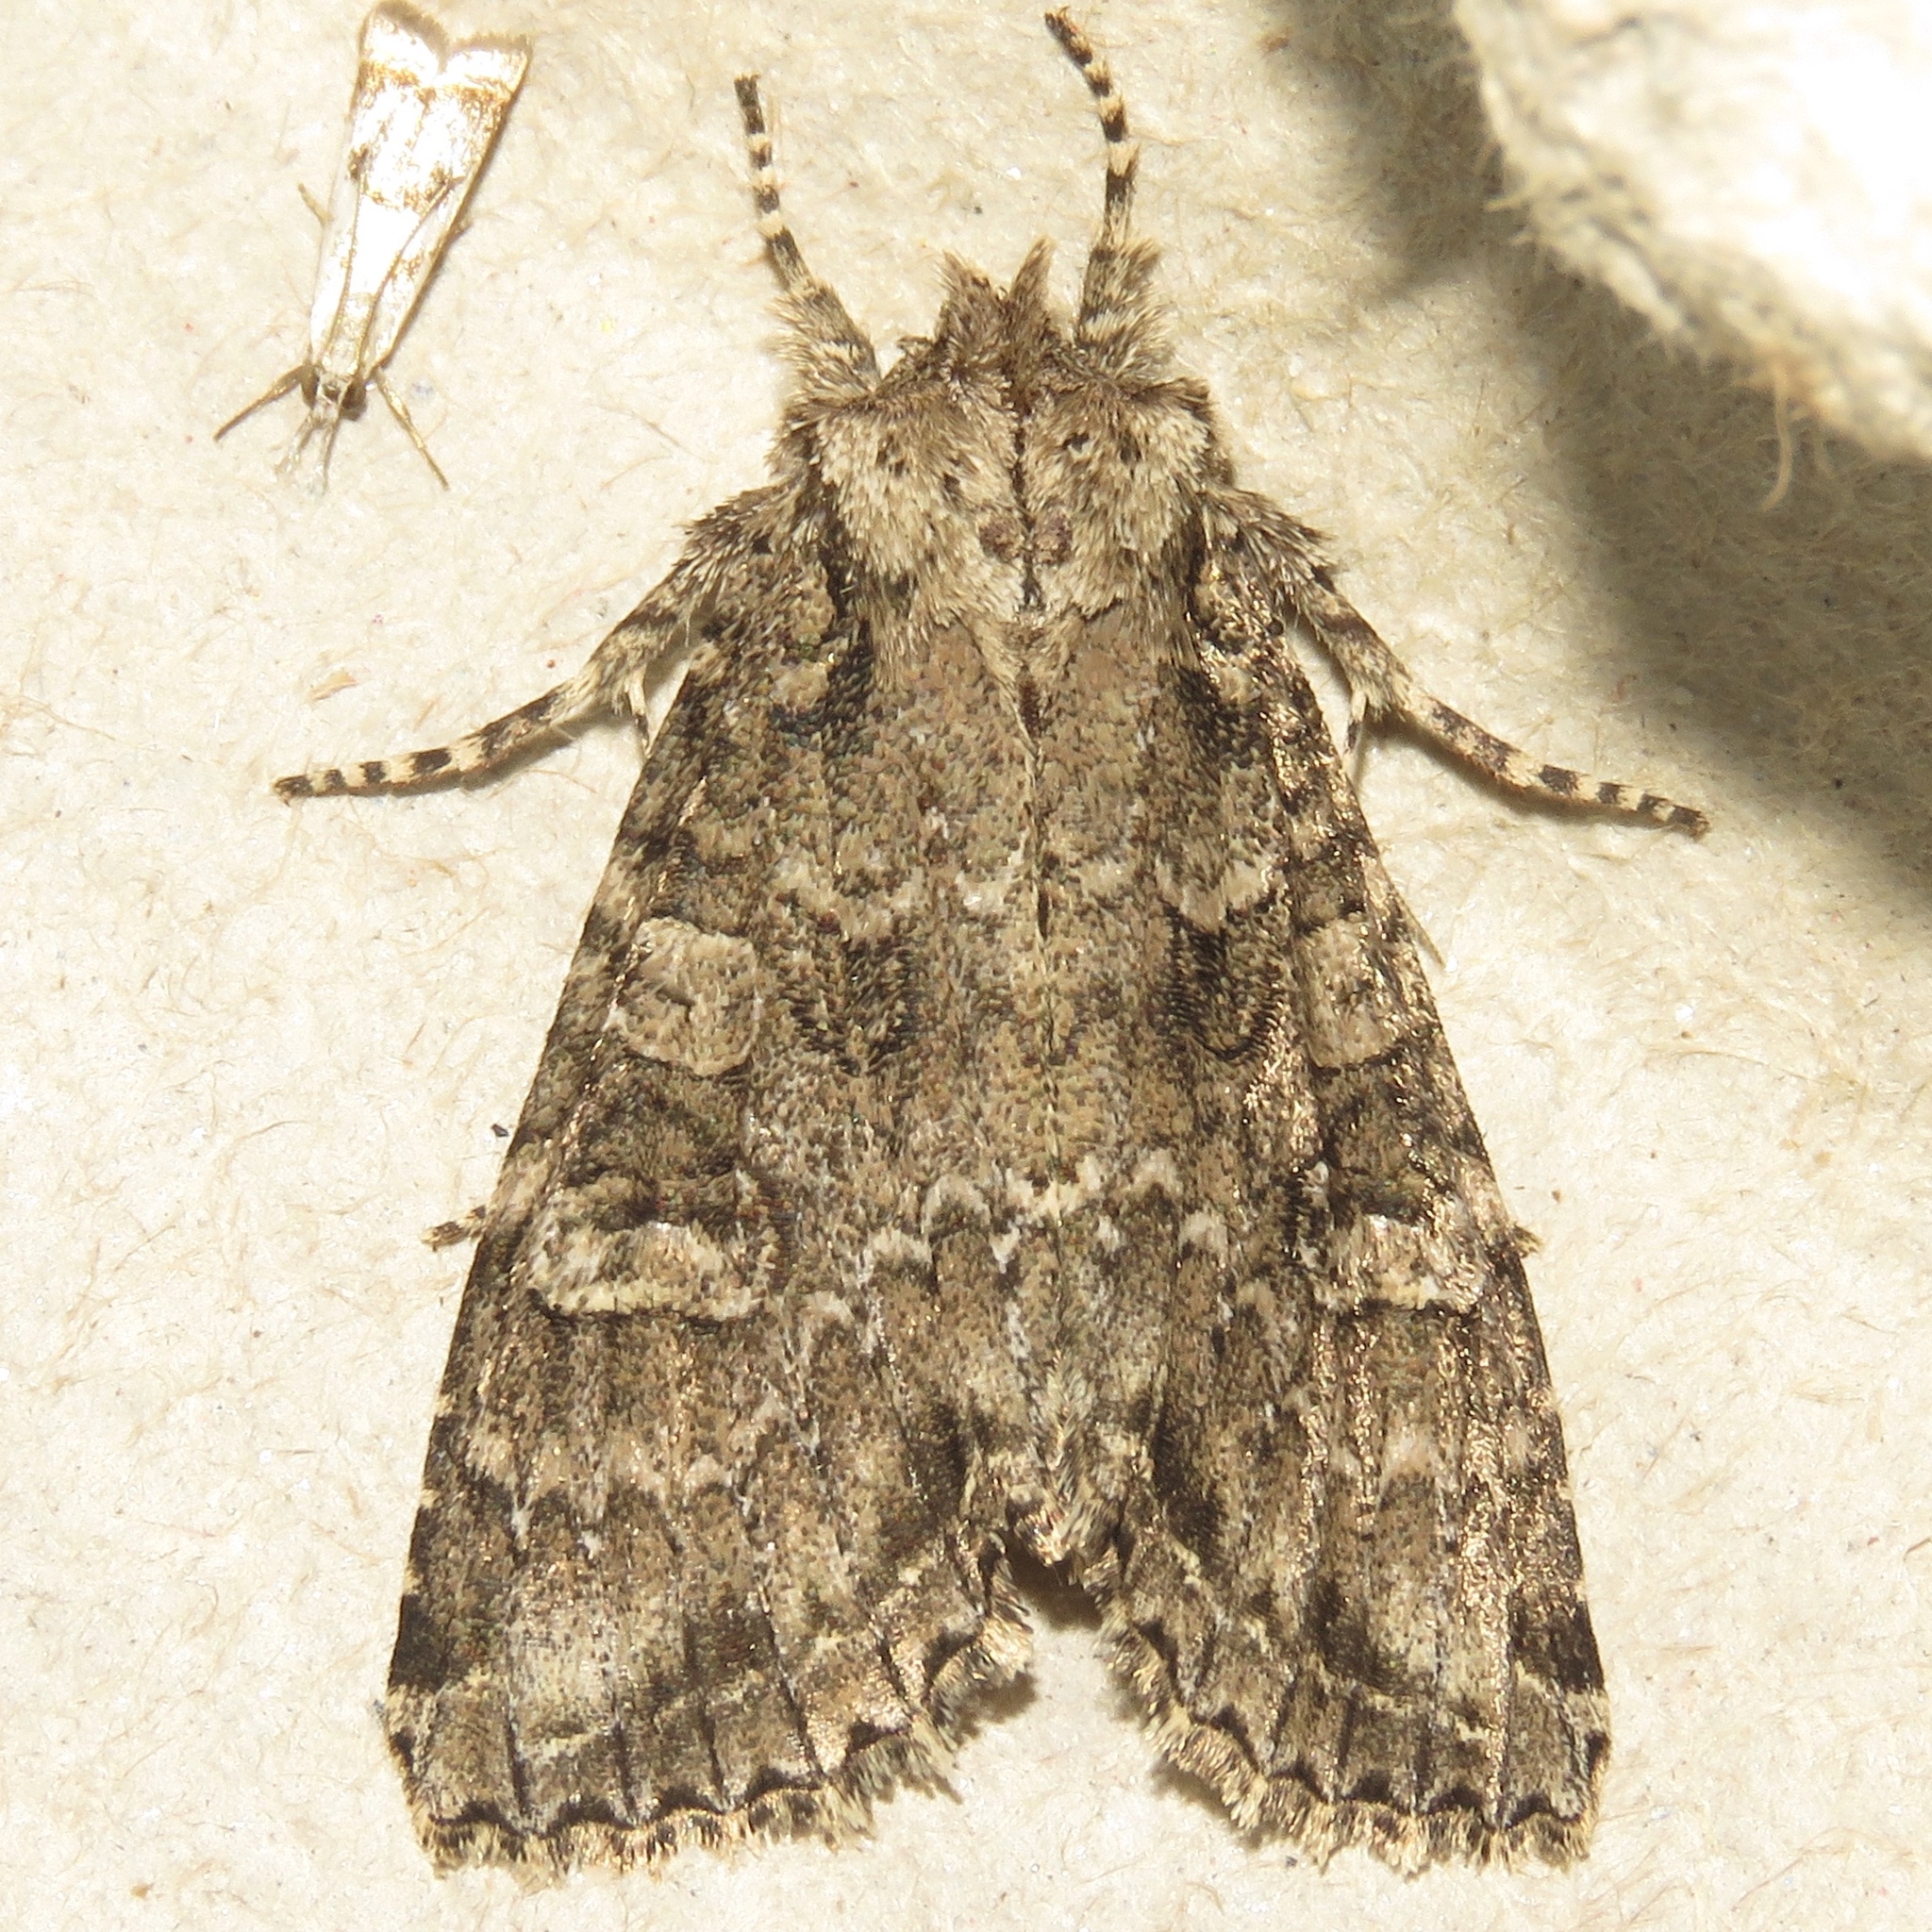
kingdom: Animalia
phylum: Arthropoda
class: Insecta
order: Lepidoptera
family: Noctuidae
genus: Polia
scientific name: Polia imbrifera
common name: Cloudy arches moth
